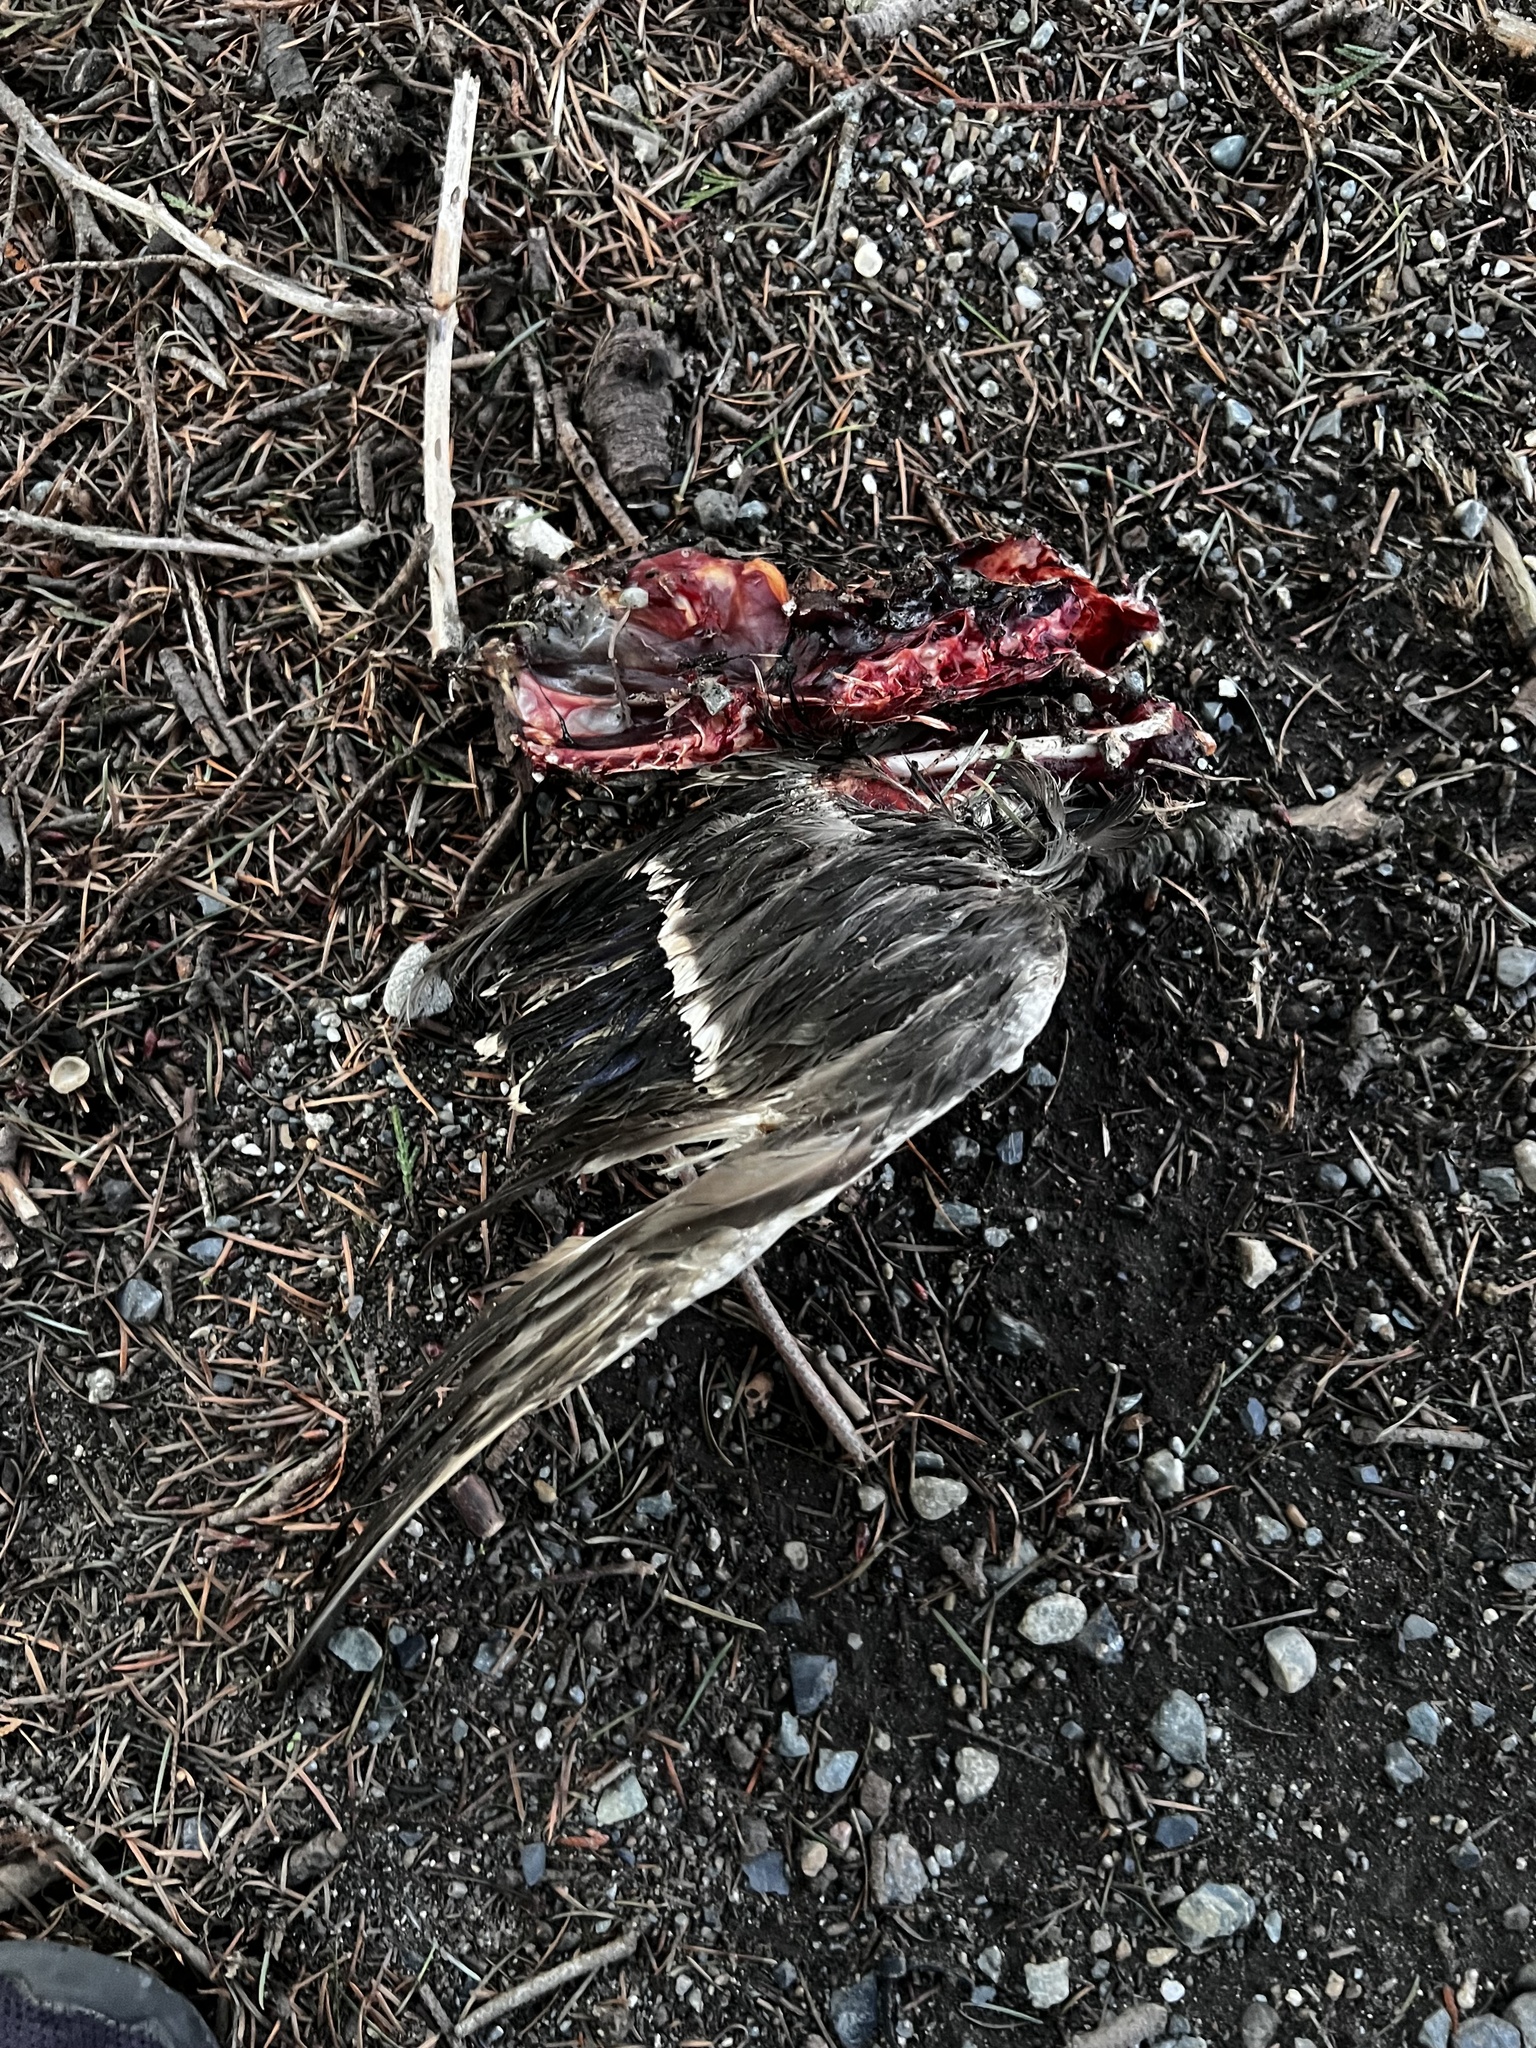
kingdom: Animalia
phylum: Chordata
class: Aves
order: Anseriformes
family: Anatidae
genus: Anas
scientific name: Anas platyrhynchos
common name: Mallard
